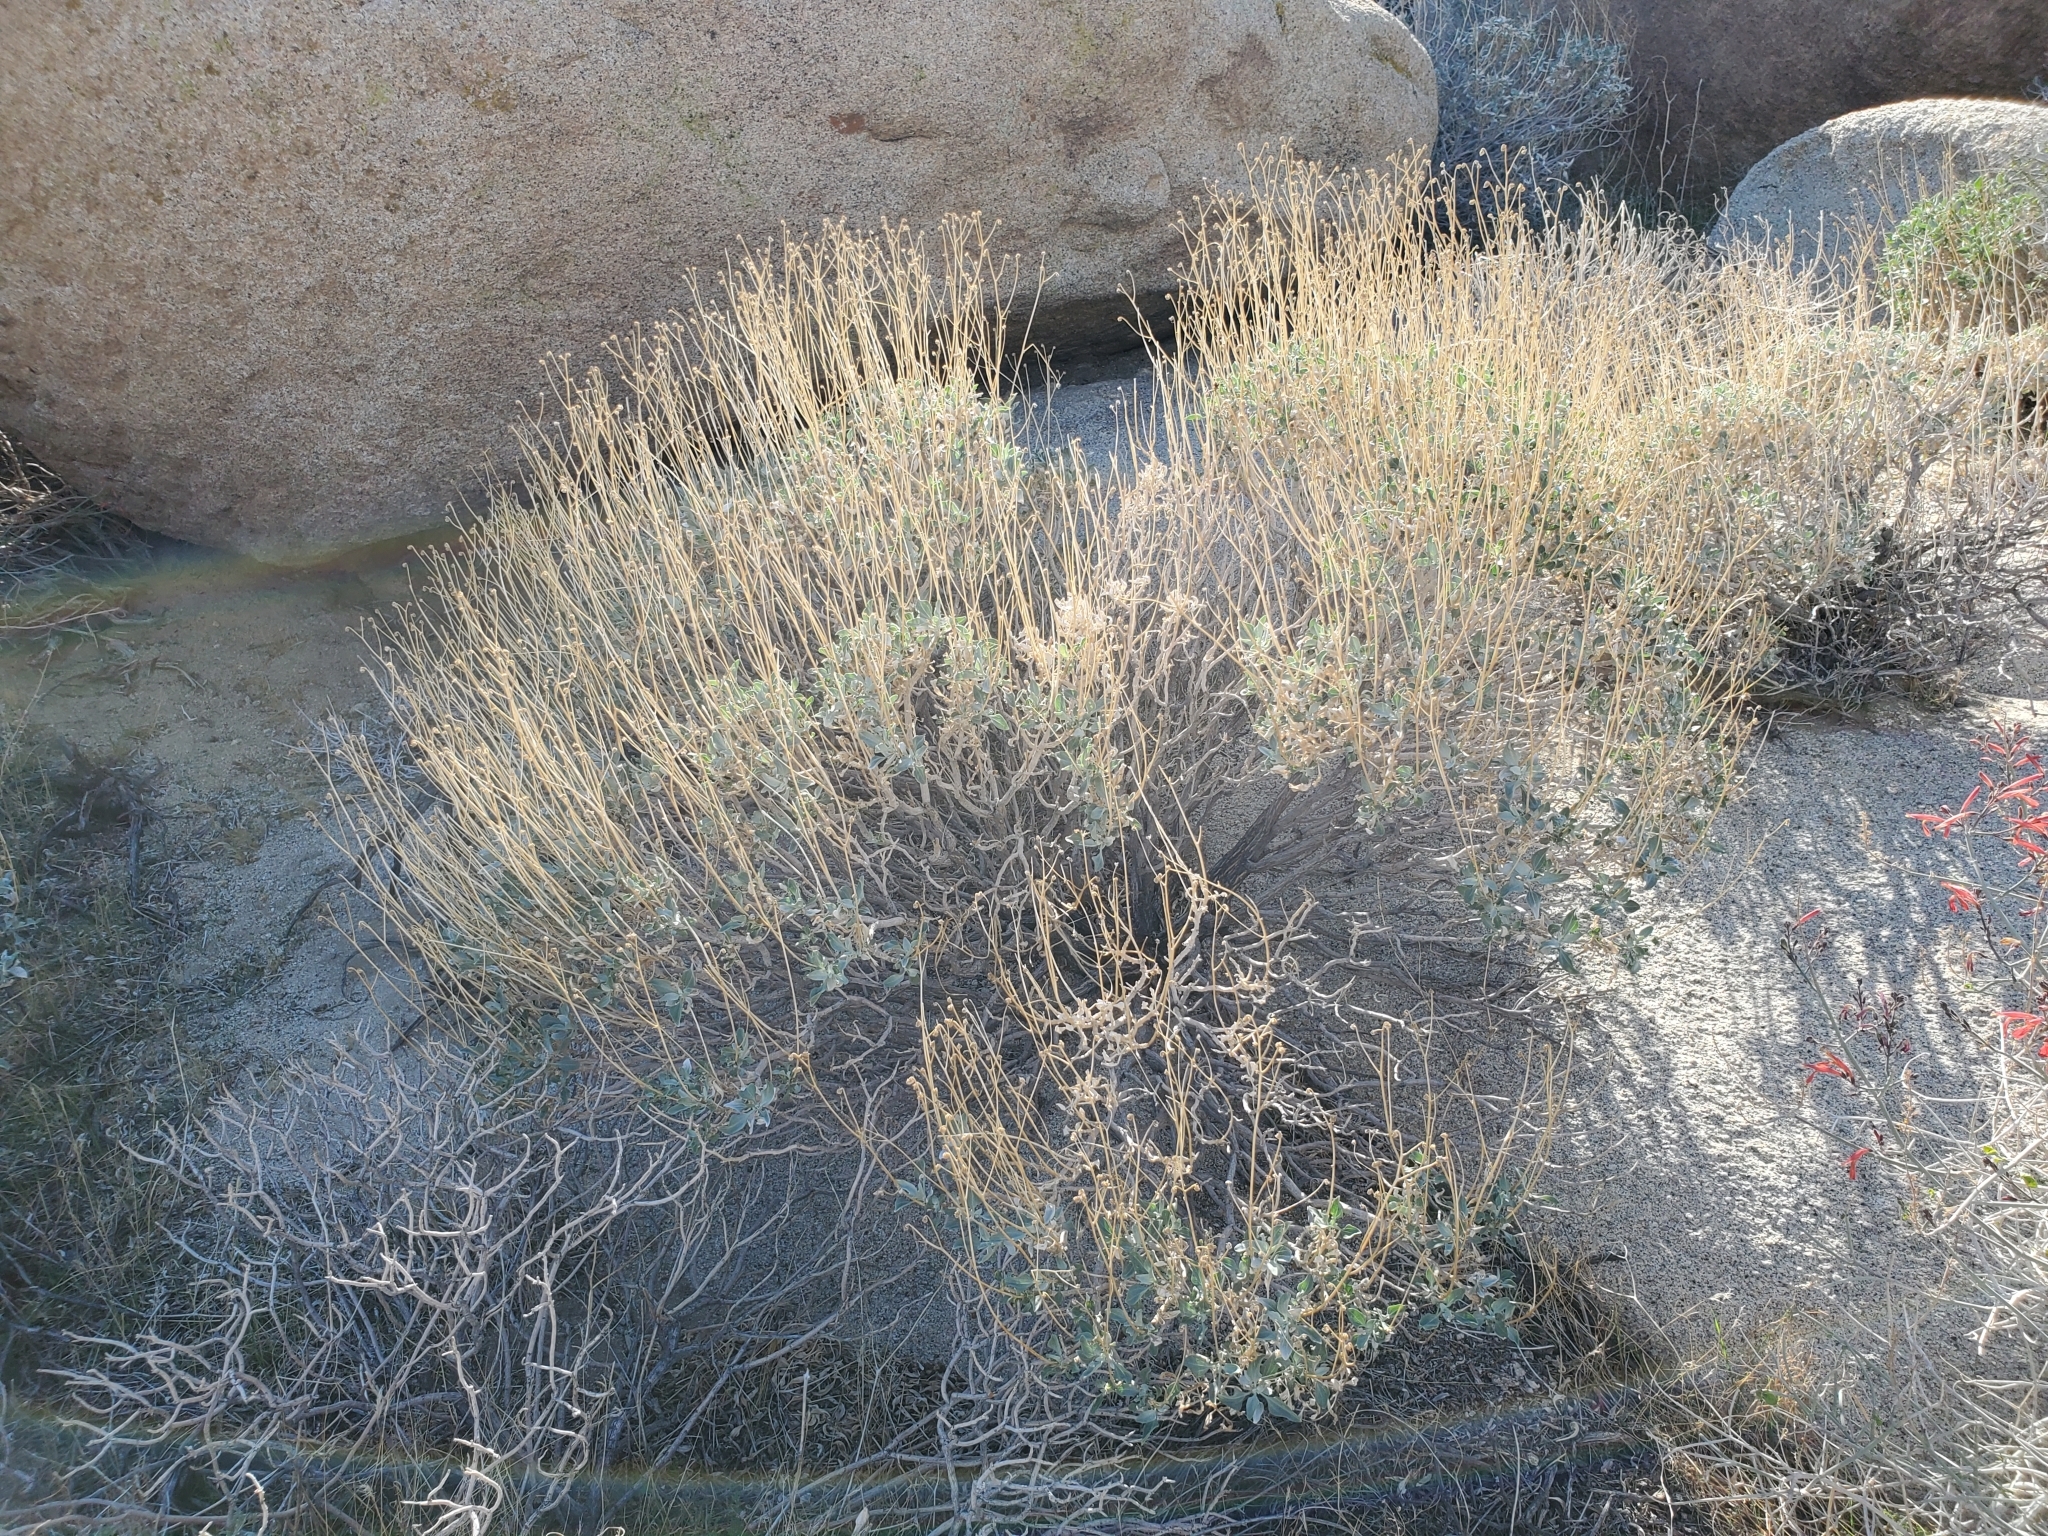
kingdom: Plantae
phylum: Tracheophyta
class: Magnoliopsida
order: Asterales
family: Asteraceae
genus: Encelia
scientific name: Encelia farinosa
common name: Brittlebush
